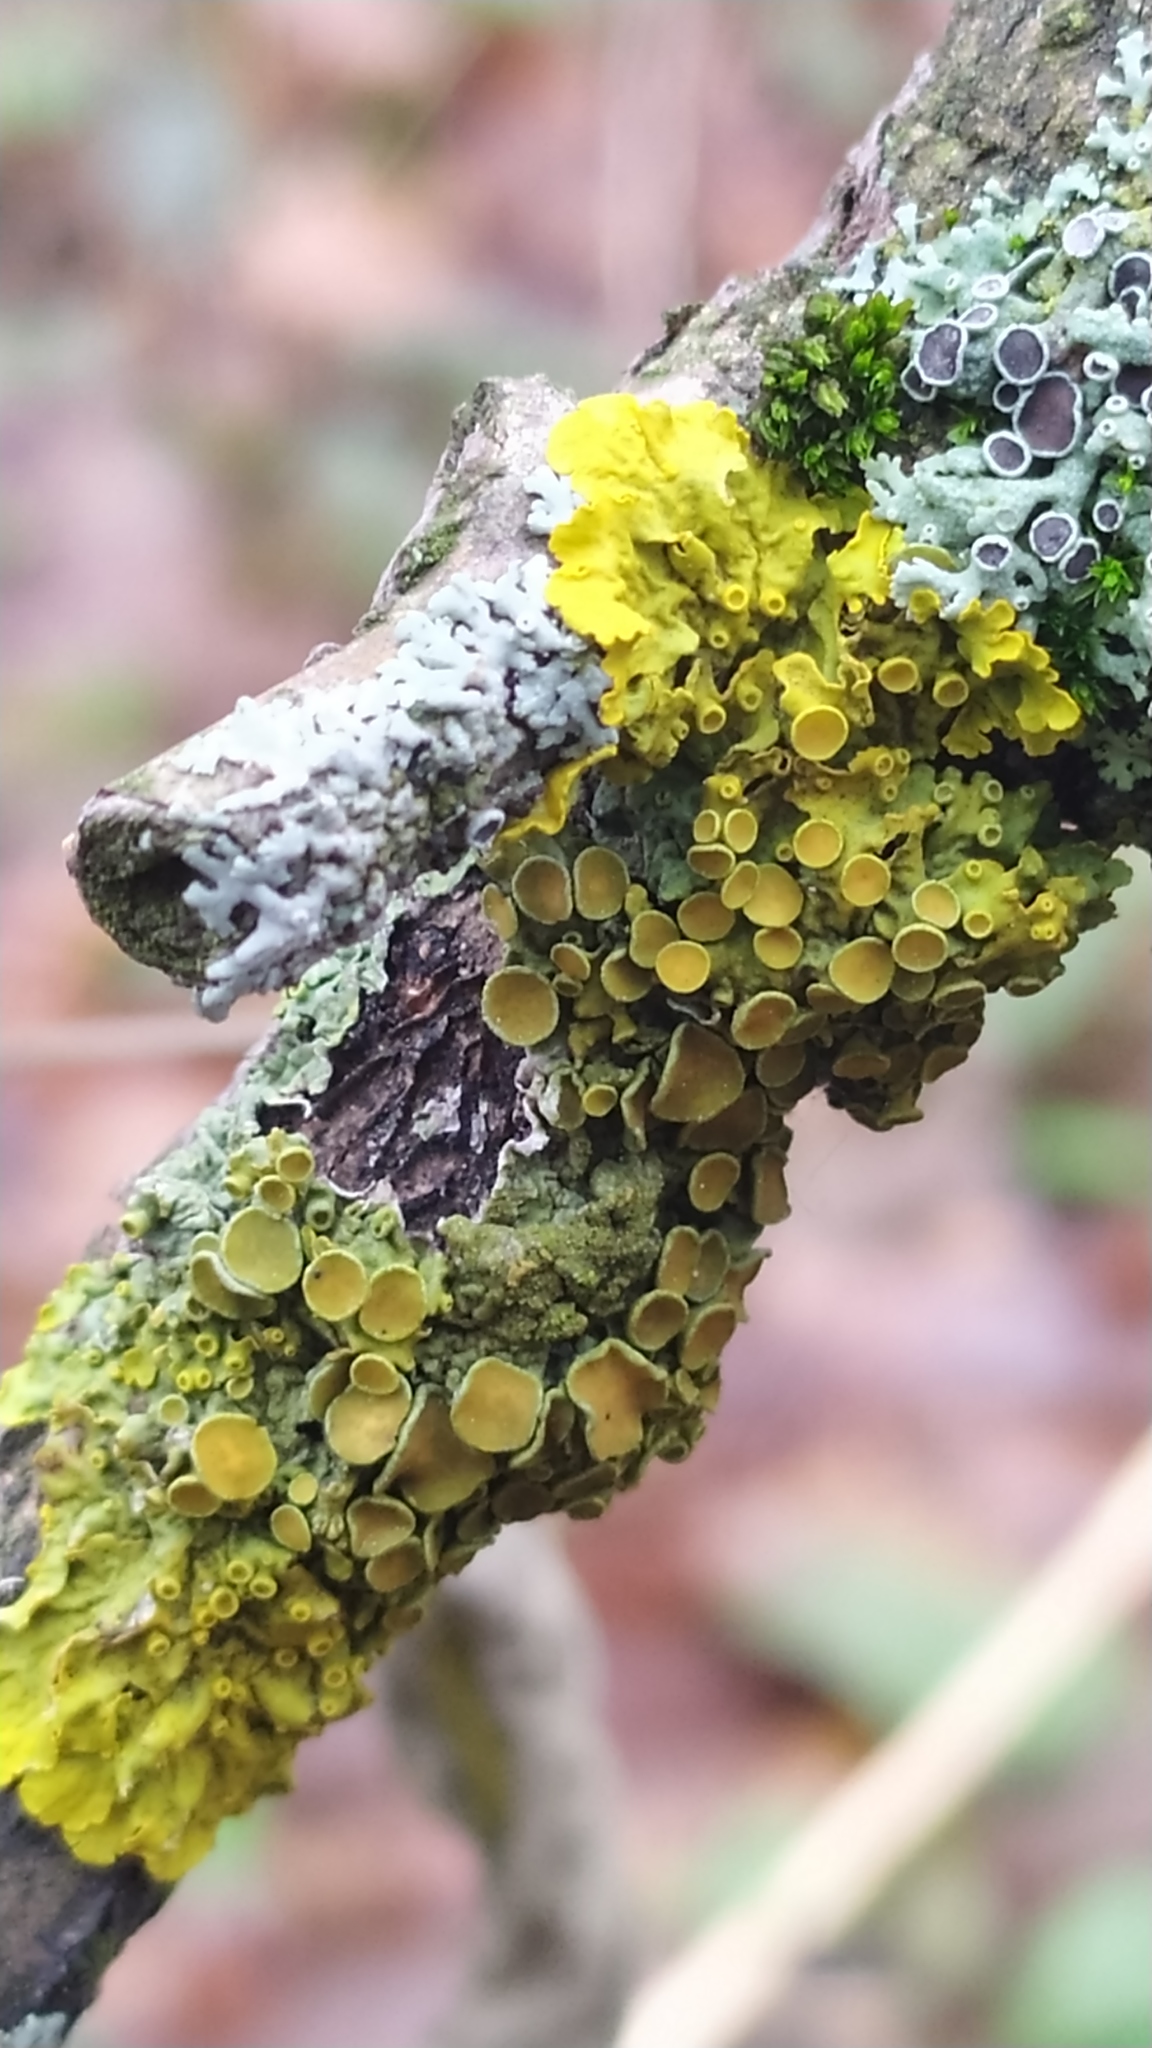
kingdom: Fungi
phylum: Ascomycota
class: Lecanoromycetes
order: Teloschistales
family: Teloschistaceae
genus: Xanthoria
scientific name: Xanthoria parietina
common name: Common orange lichen
